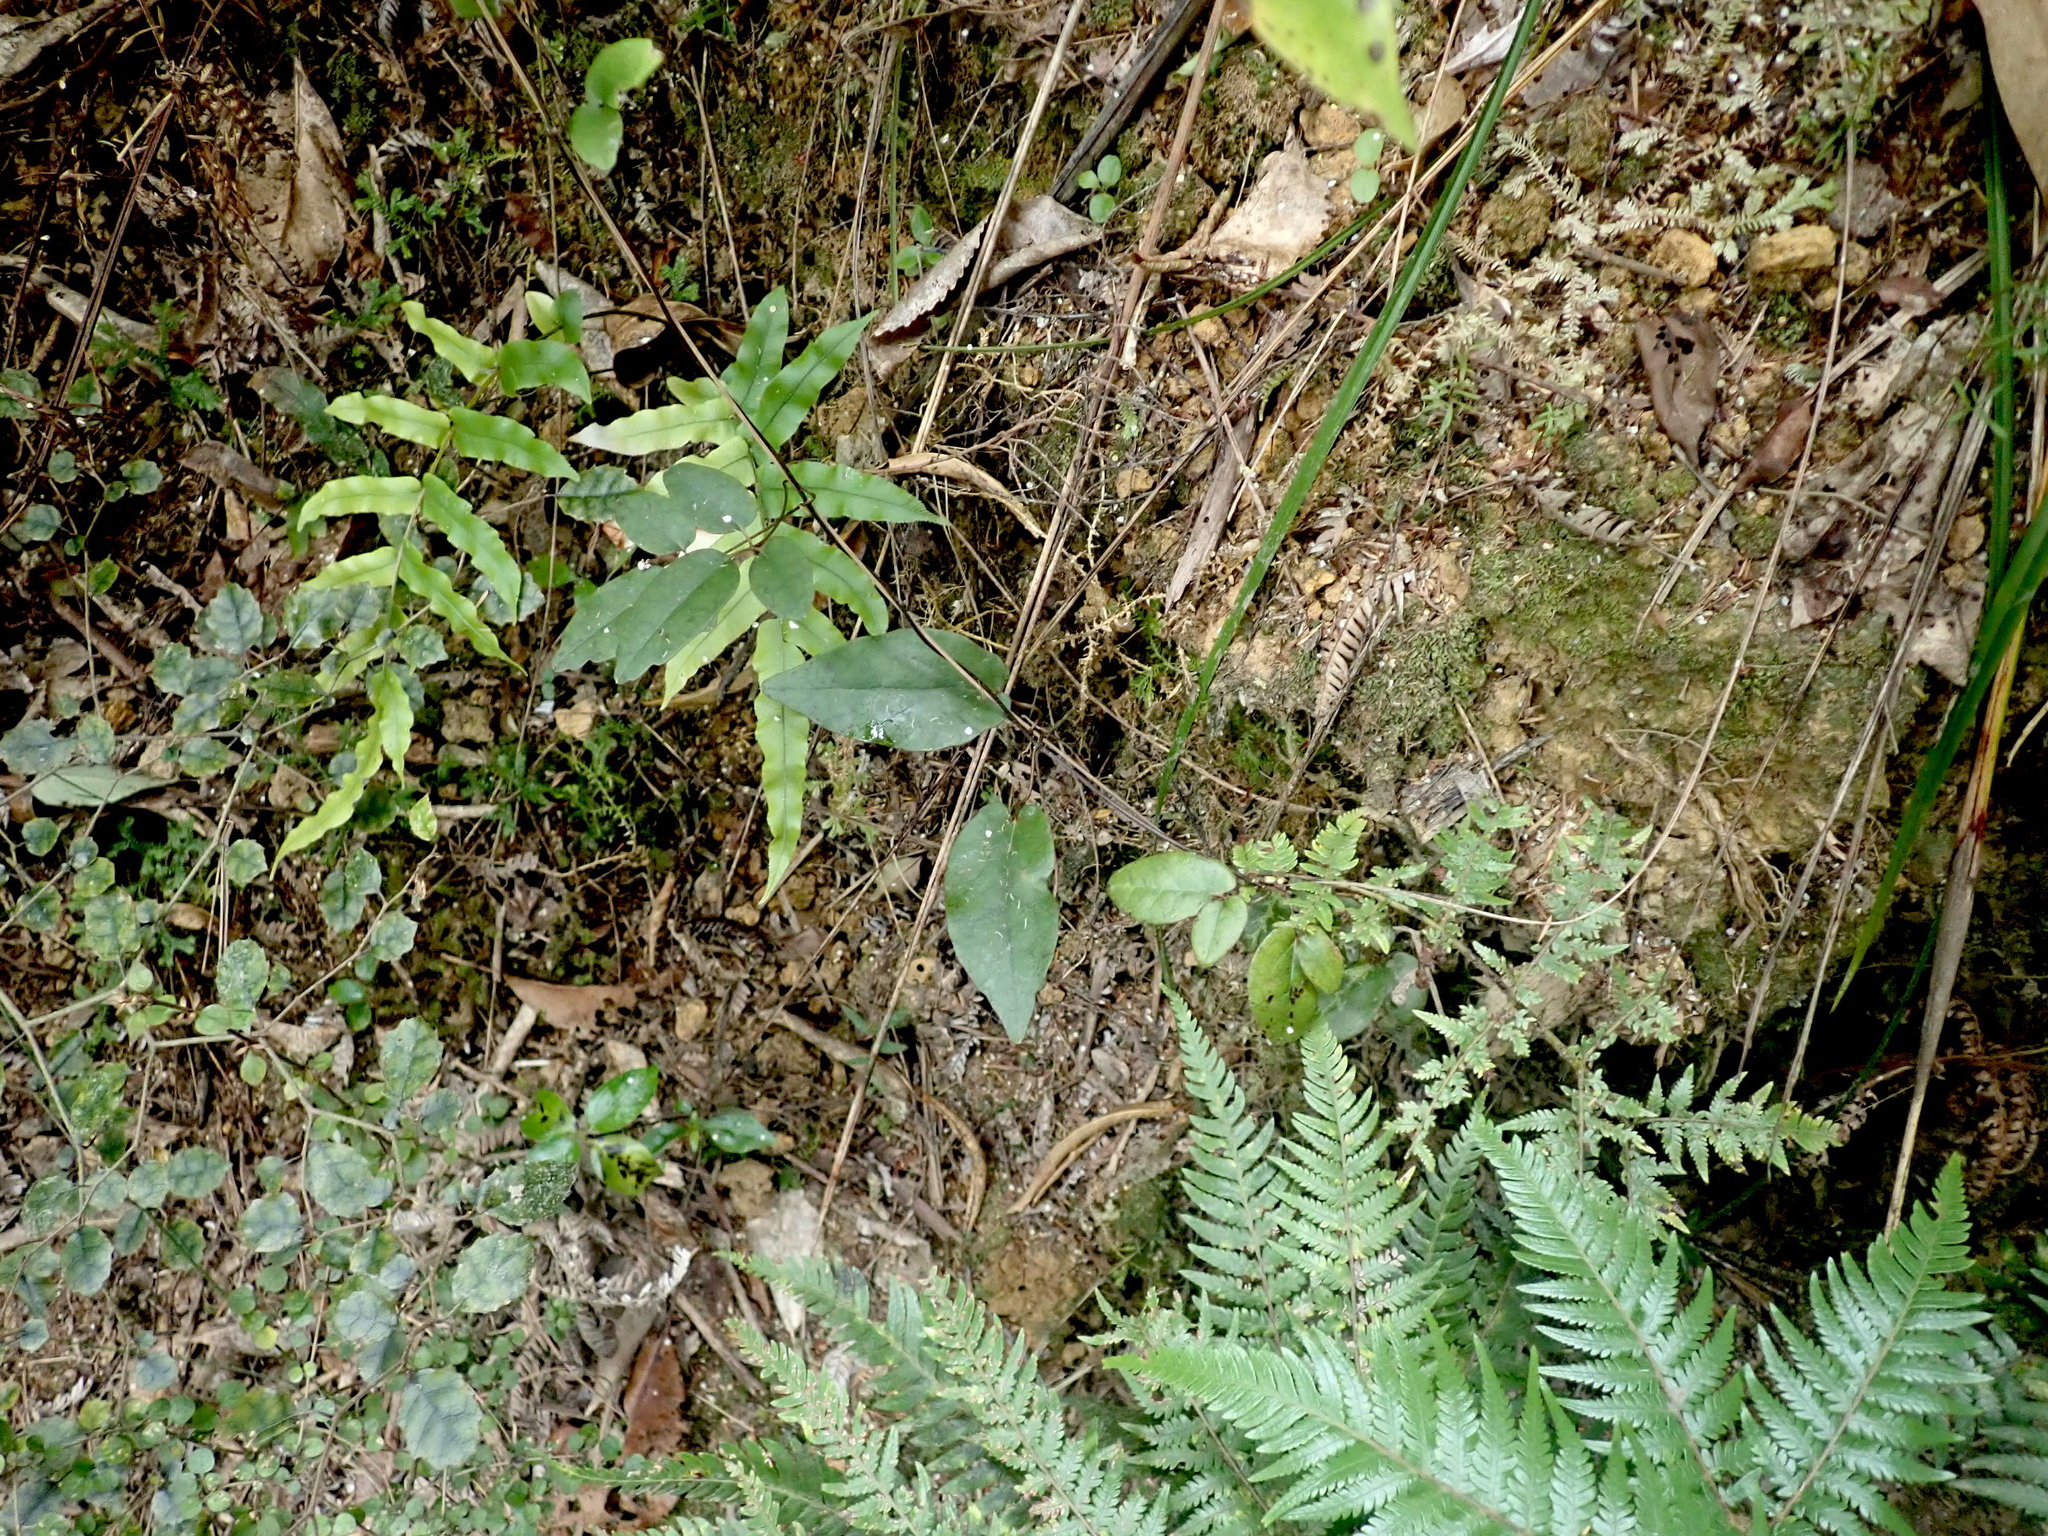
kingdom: Plantae
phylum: Tracheophyta
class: Polypodiopsida
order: Polypodiales
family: Blechnaceae
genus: Parablechnum
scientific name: Parablechnum novae-zelandiae
